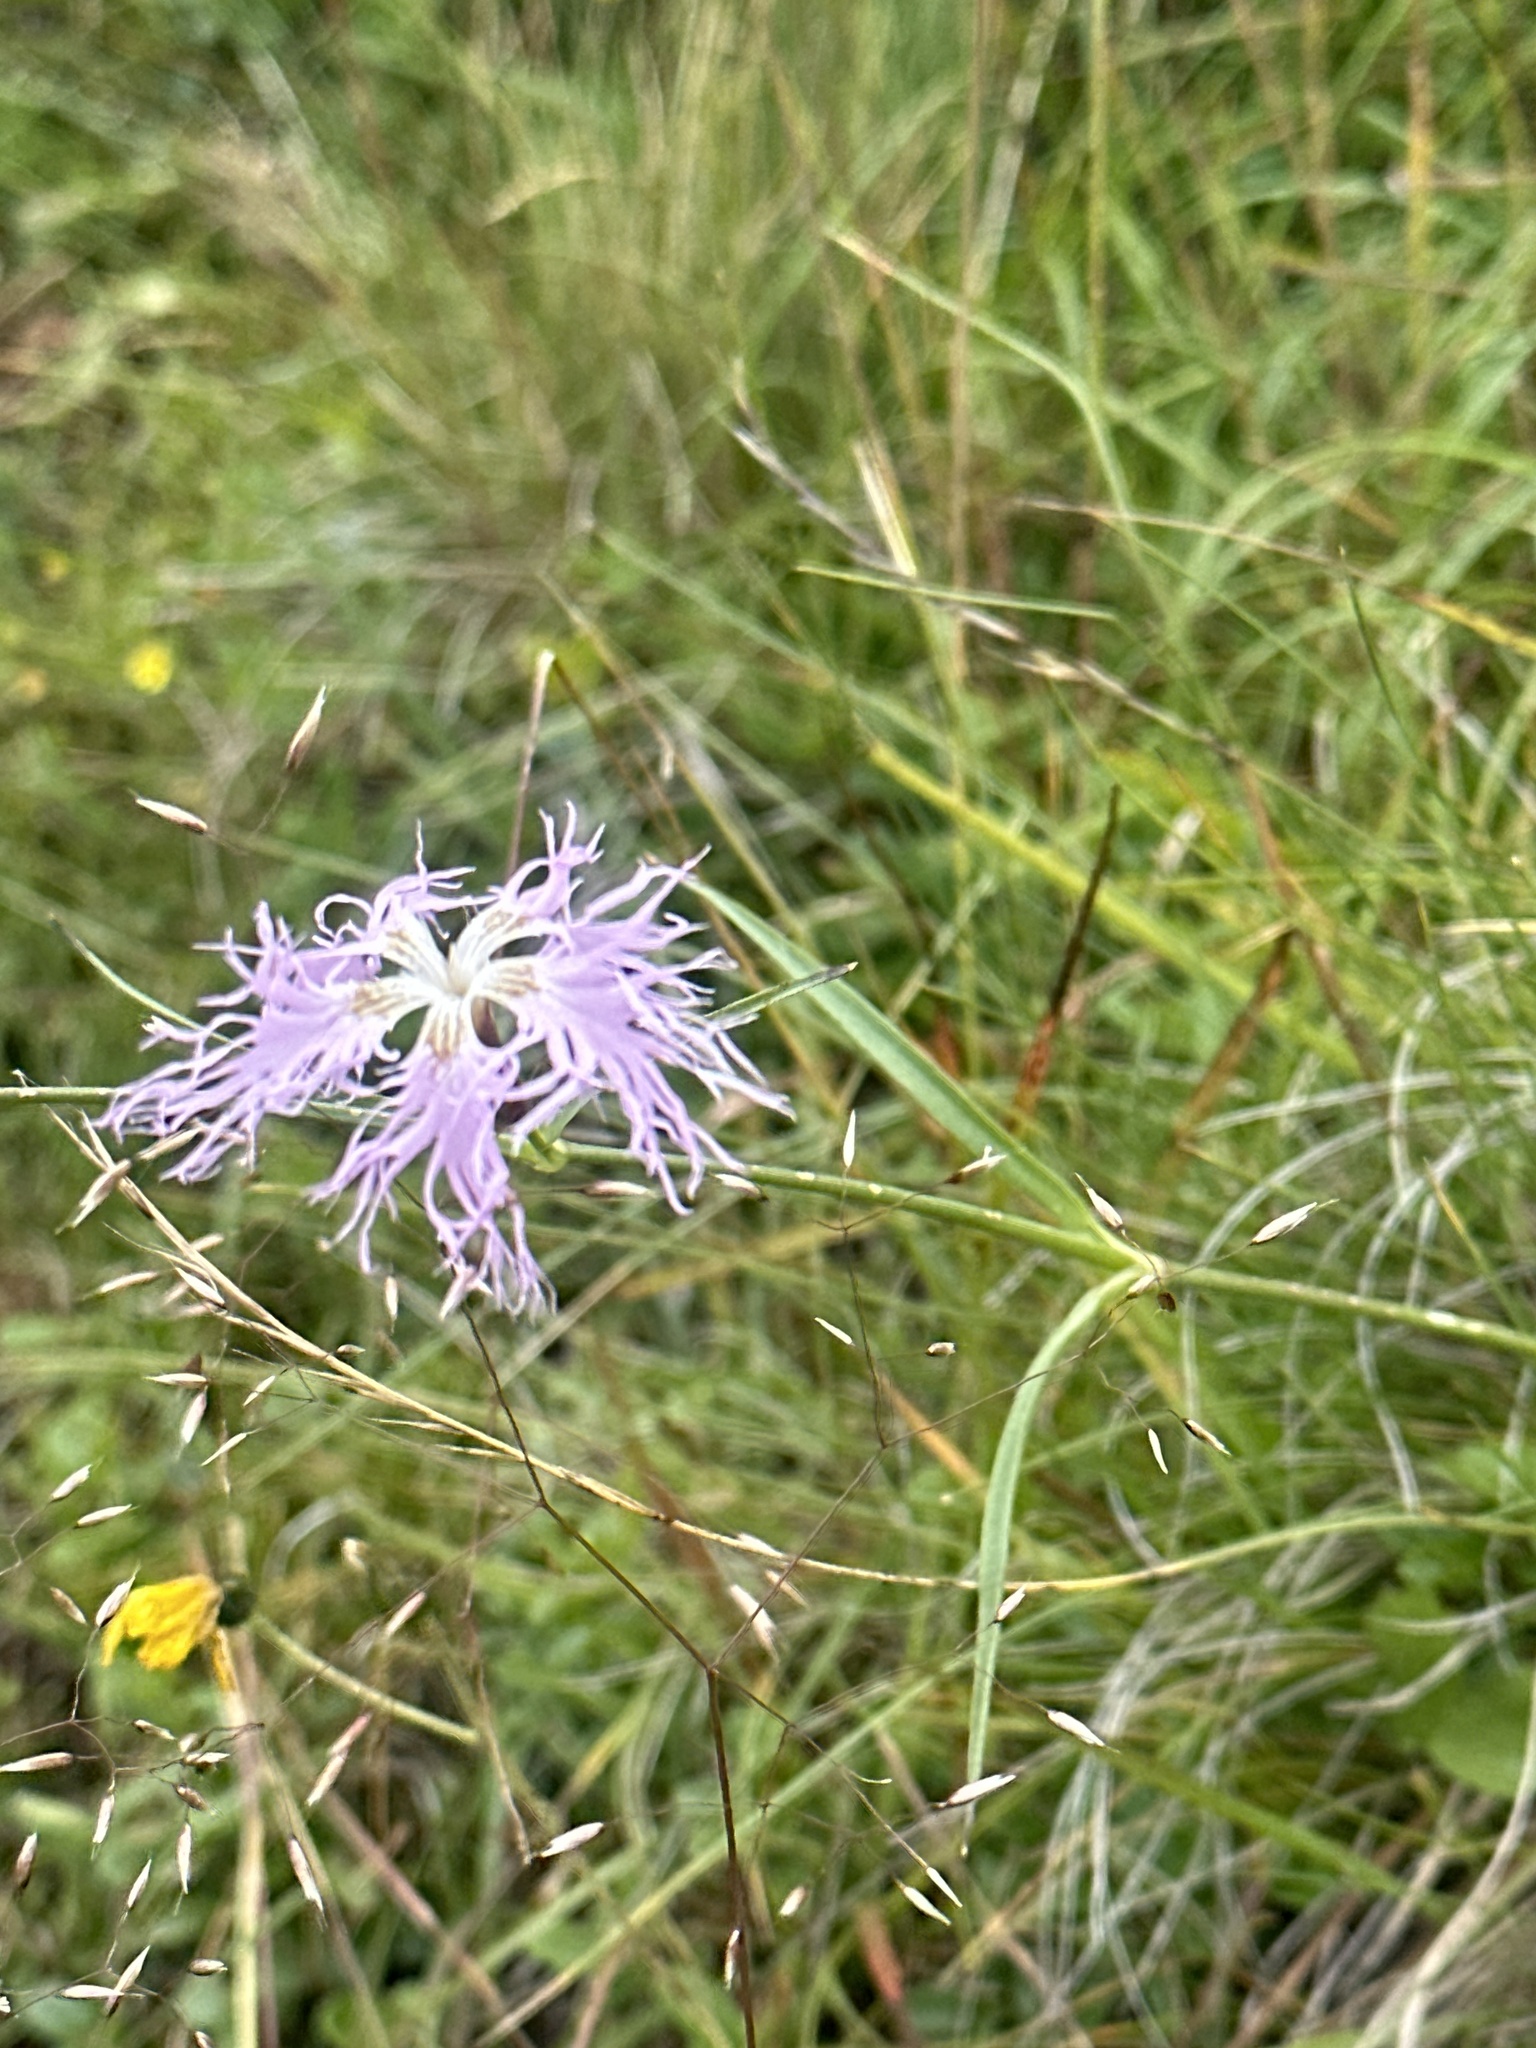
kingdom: Plantae
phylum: Tracheophyta
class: Magnoliopsida
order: Caryophyllales
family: Caryophyllaceae
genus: Dianthus
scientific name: Dianthus superbus
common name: Fringed pink
